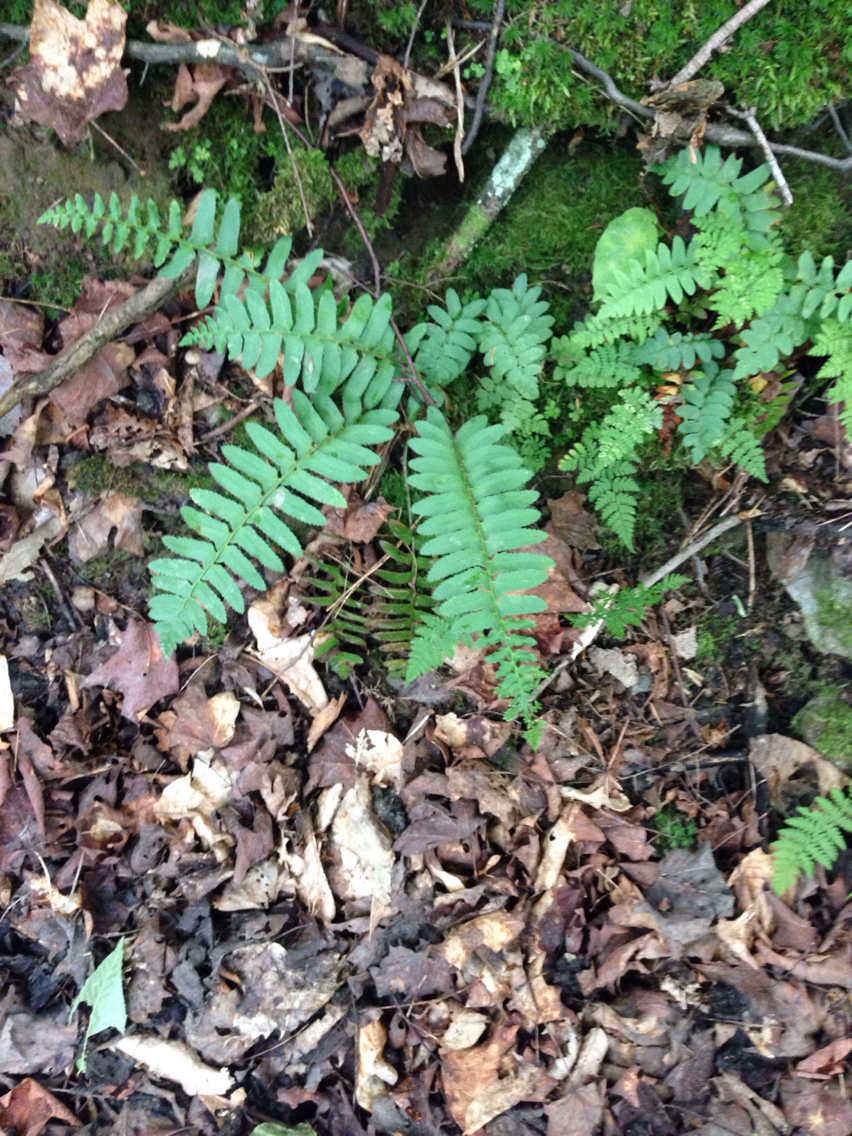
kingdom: Plantae
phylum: Tracheophyta
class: Polypodiopsida
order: Polypodiales
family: Dryopteridaceae
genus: Polystichum
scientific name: Polystichum acrostichoides
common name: Christmas fern
